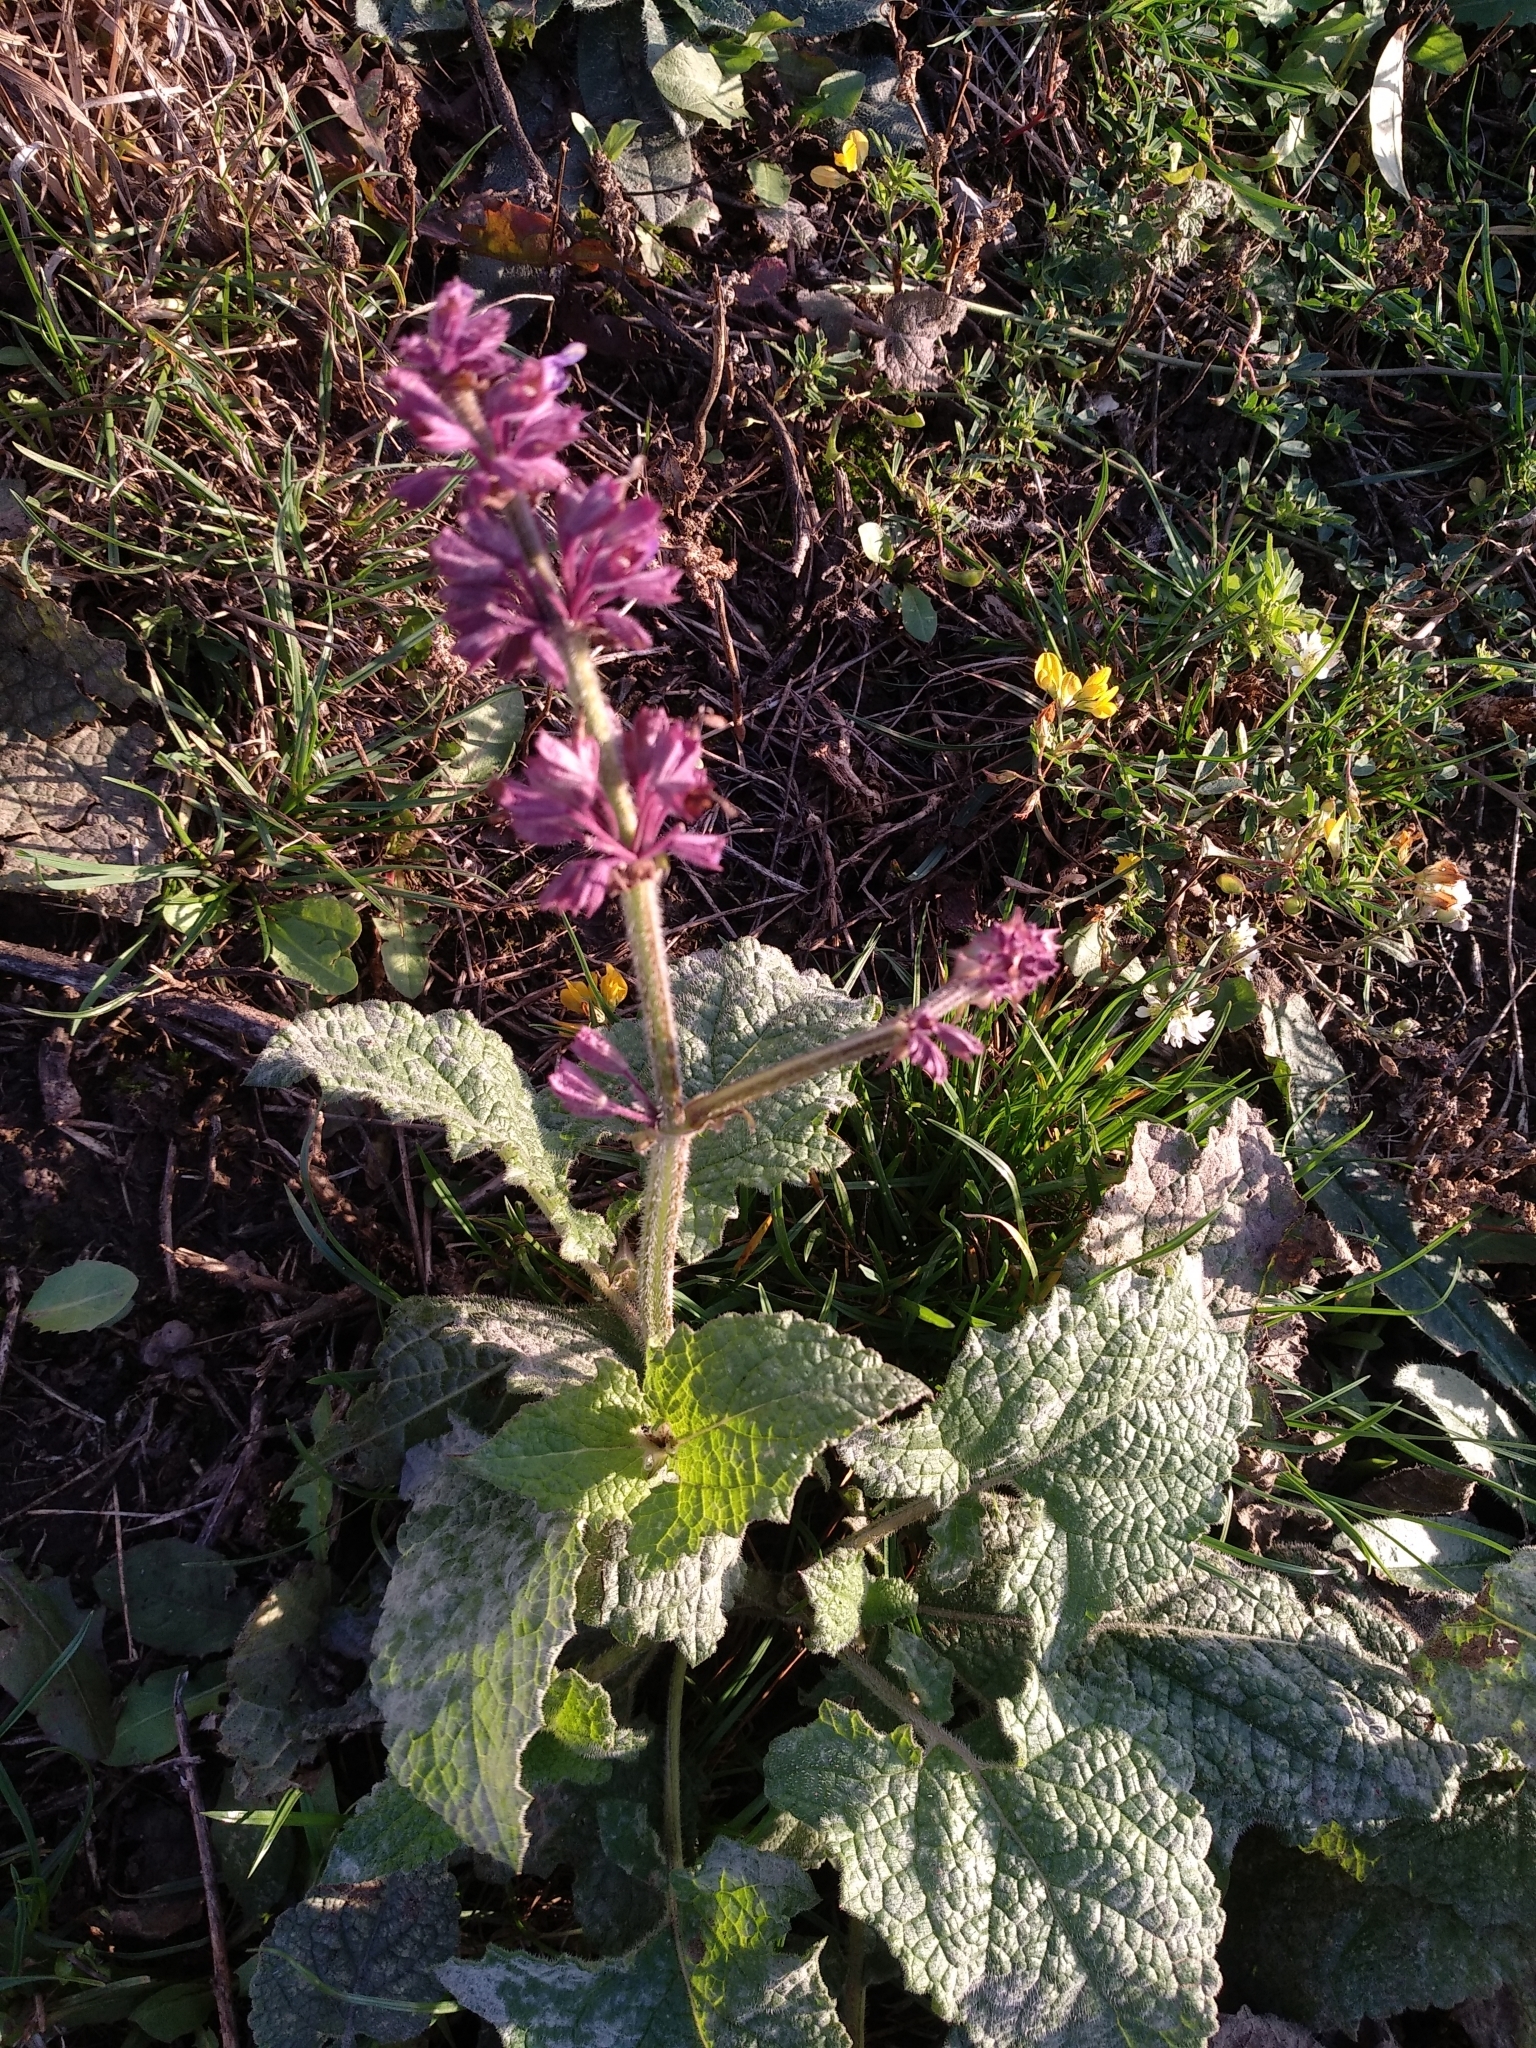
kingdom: Plantae
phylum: Tracheophyta
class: Magnoliopsida
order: Lamiales
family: Lamiaceae
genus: Salvia
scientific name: Salvia verticillata
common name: Whorled clary
